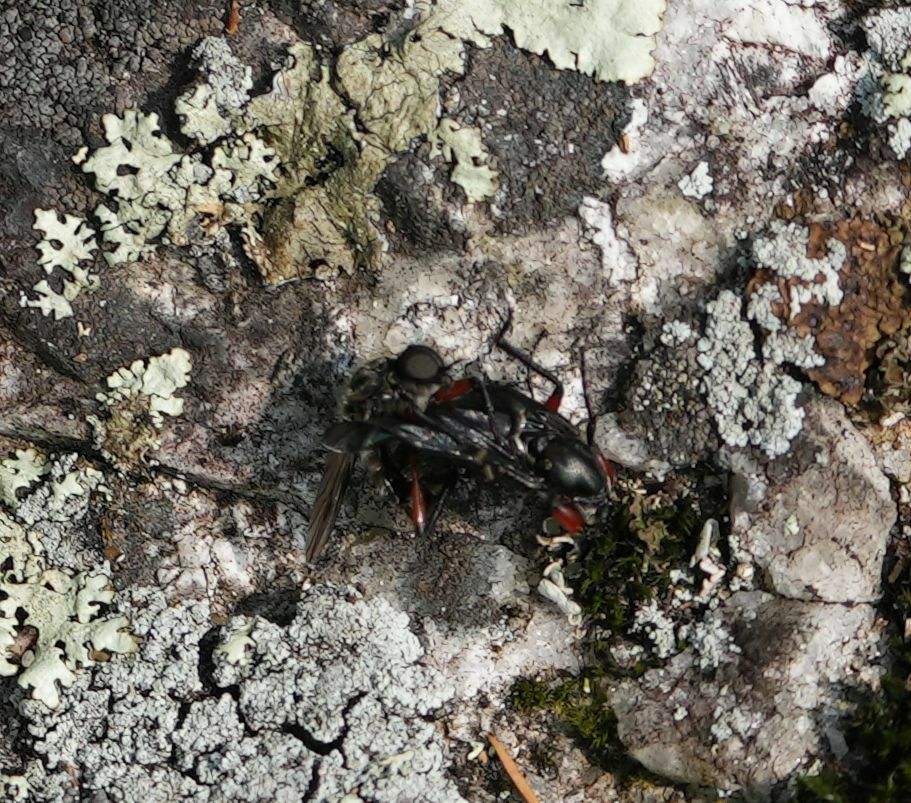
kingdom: Animalia
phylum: Arthropoda
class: Insecta
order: Diptera
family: Bibionidae
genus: Bibio
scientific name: Bibio femoratus
